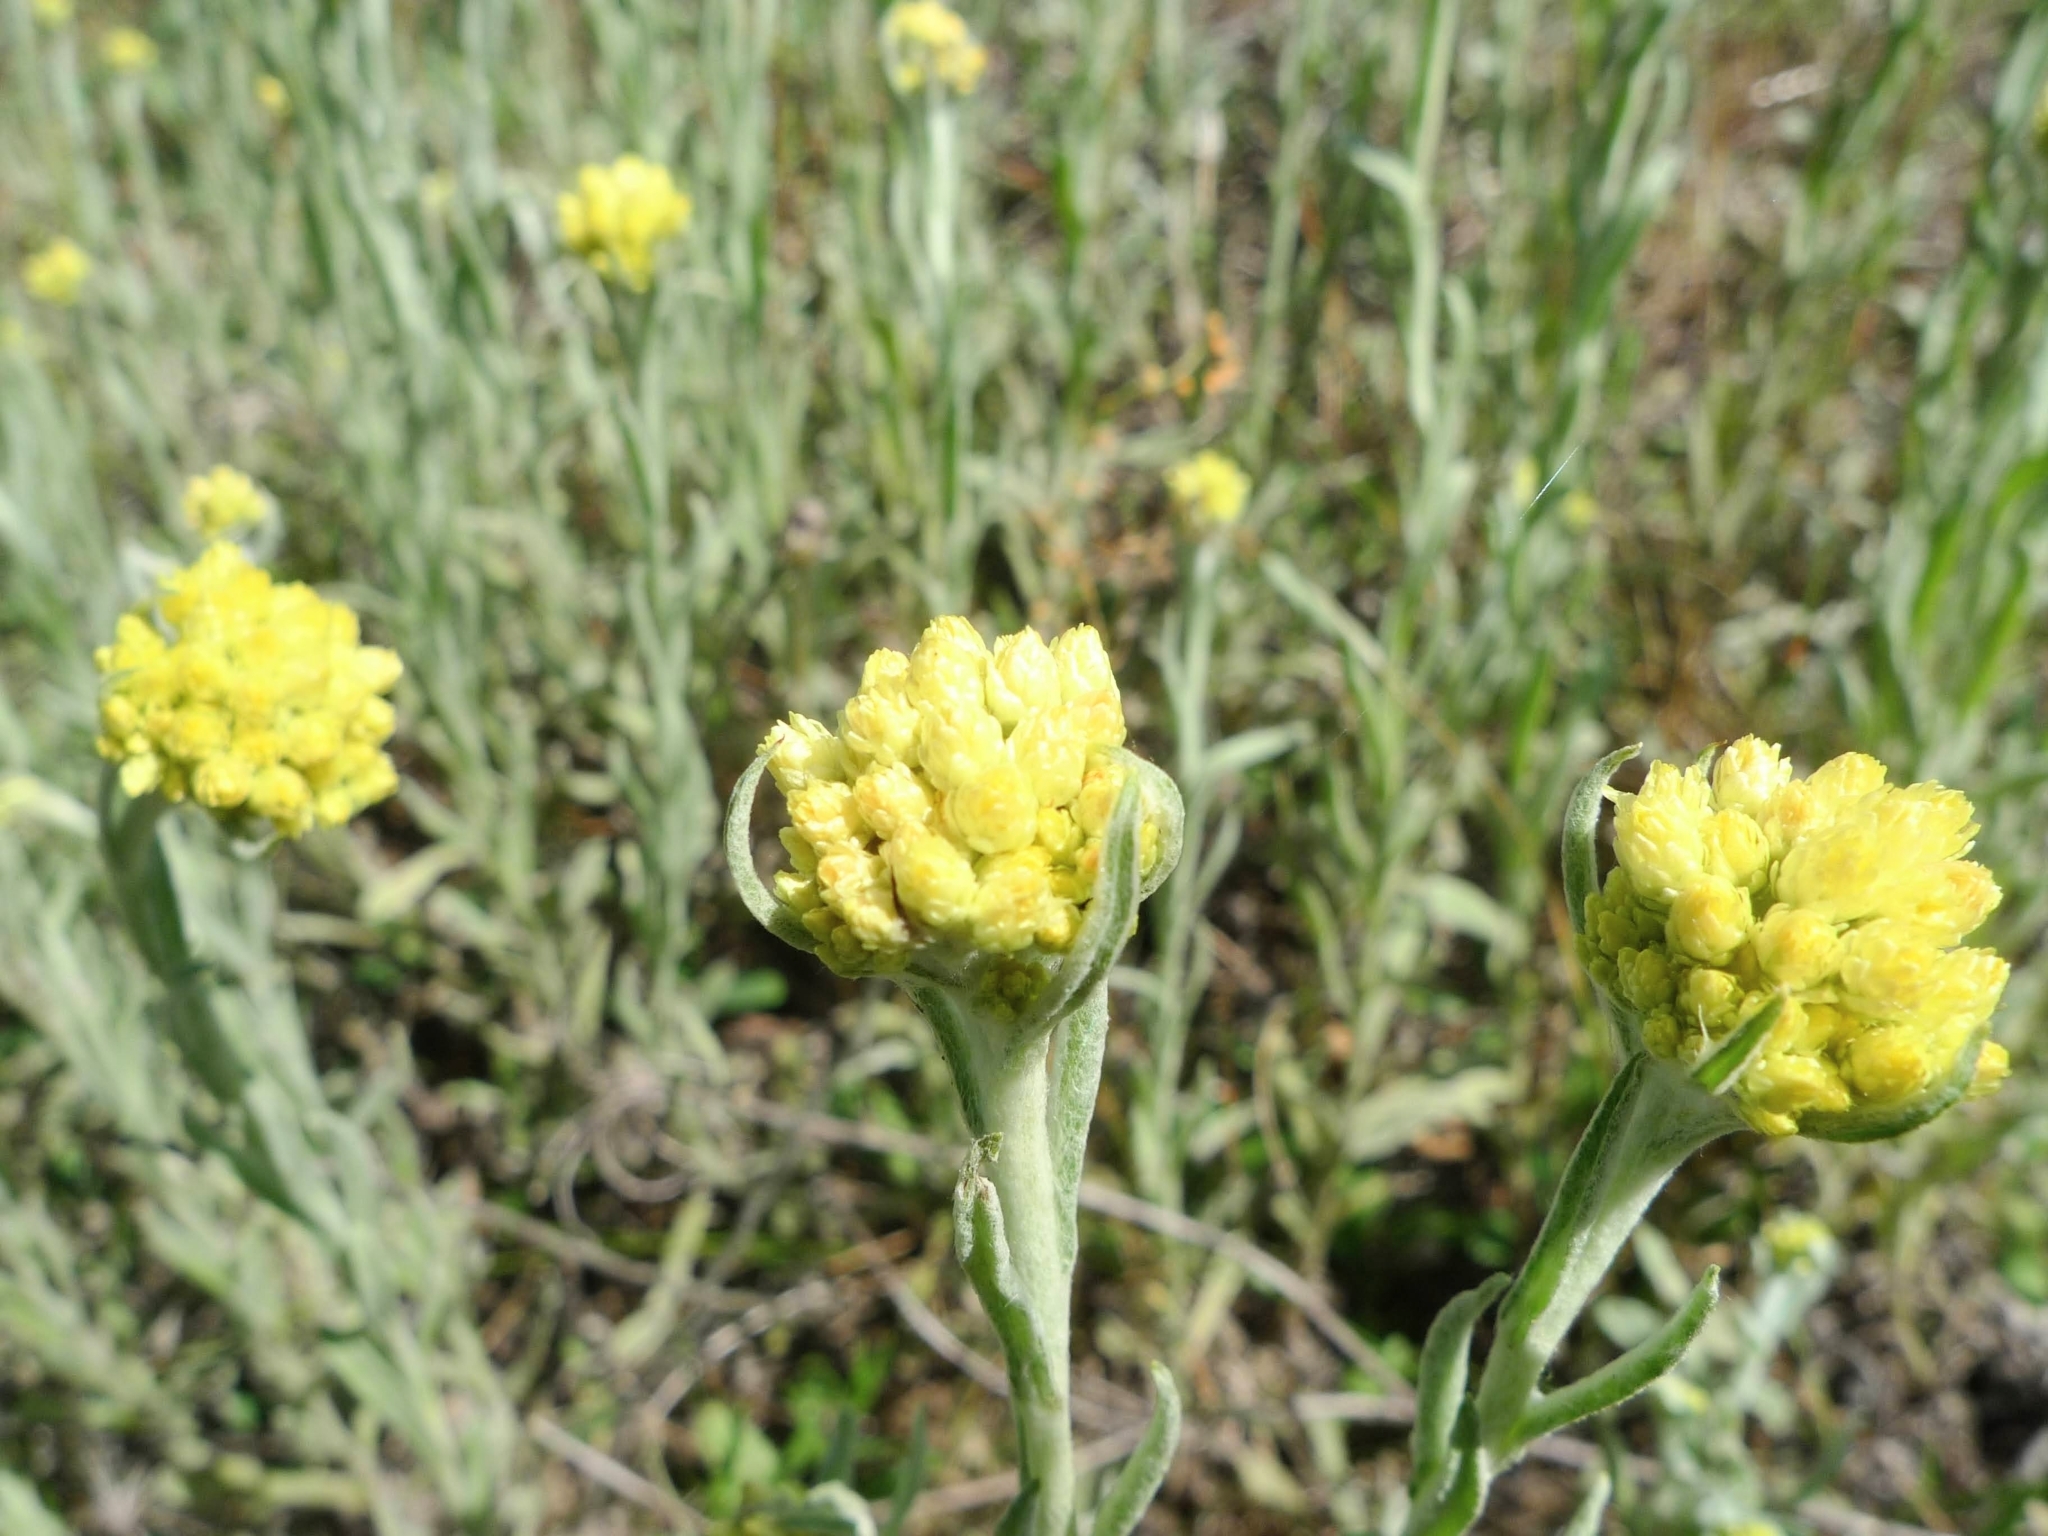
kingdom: Plantae
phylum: Tracheophyta
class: Magnoliopsida
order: Asterales
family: Asteraceae
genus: Helichrysum
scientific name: Helichrysum arenarium
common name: Strawflower
